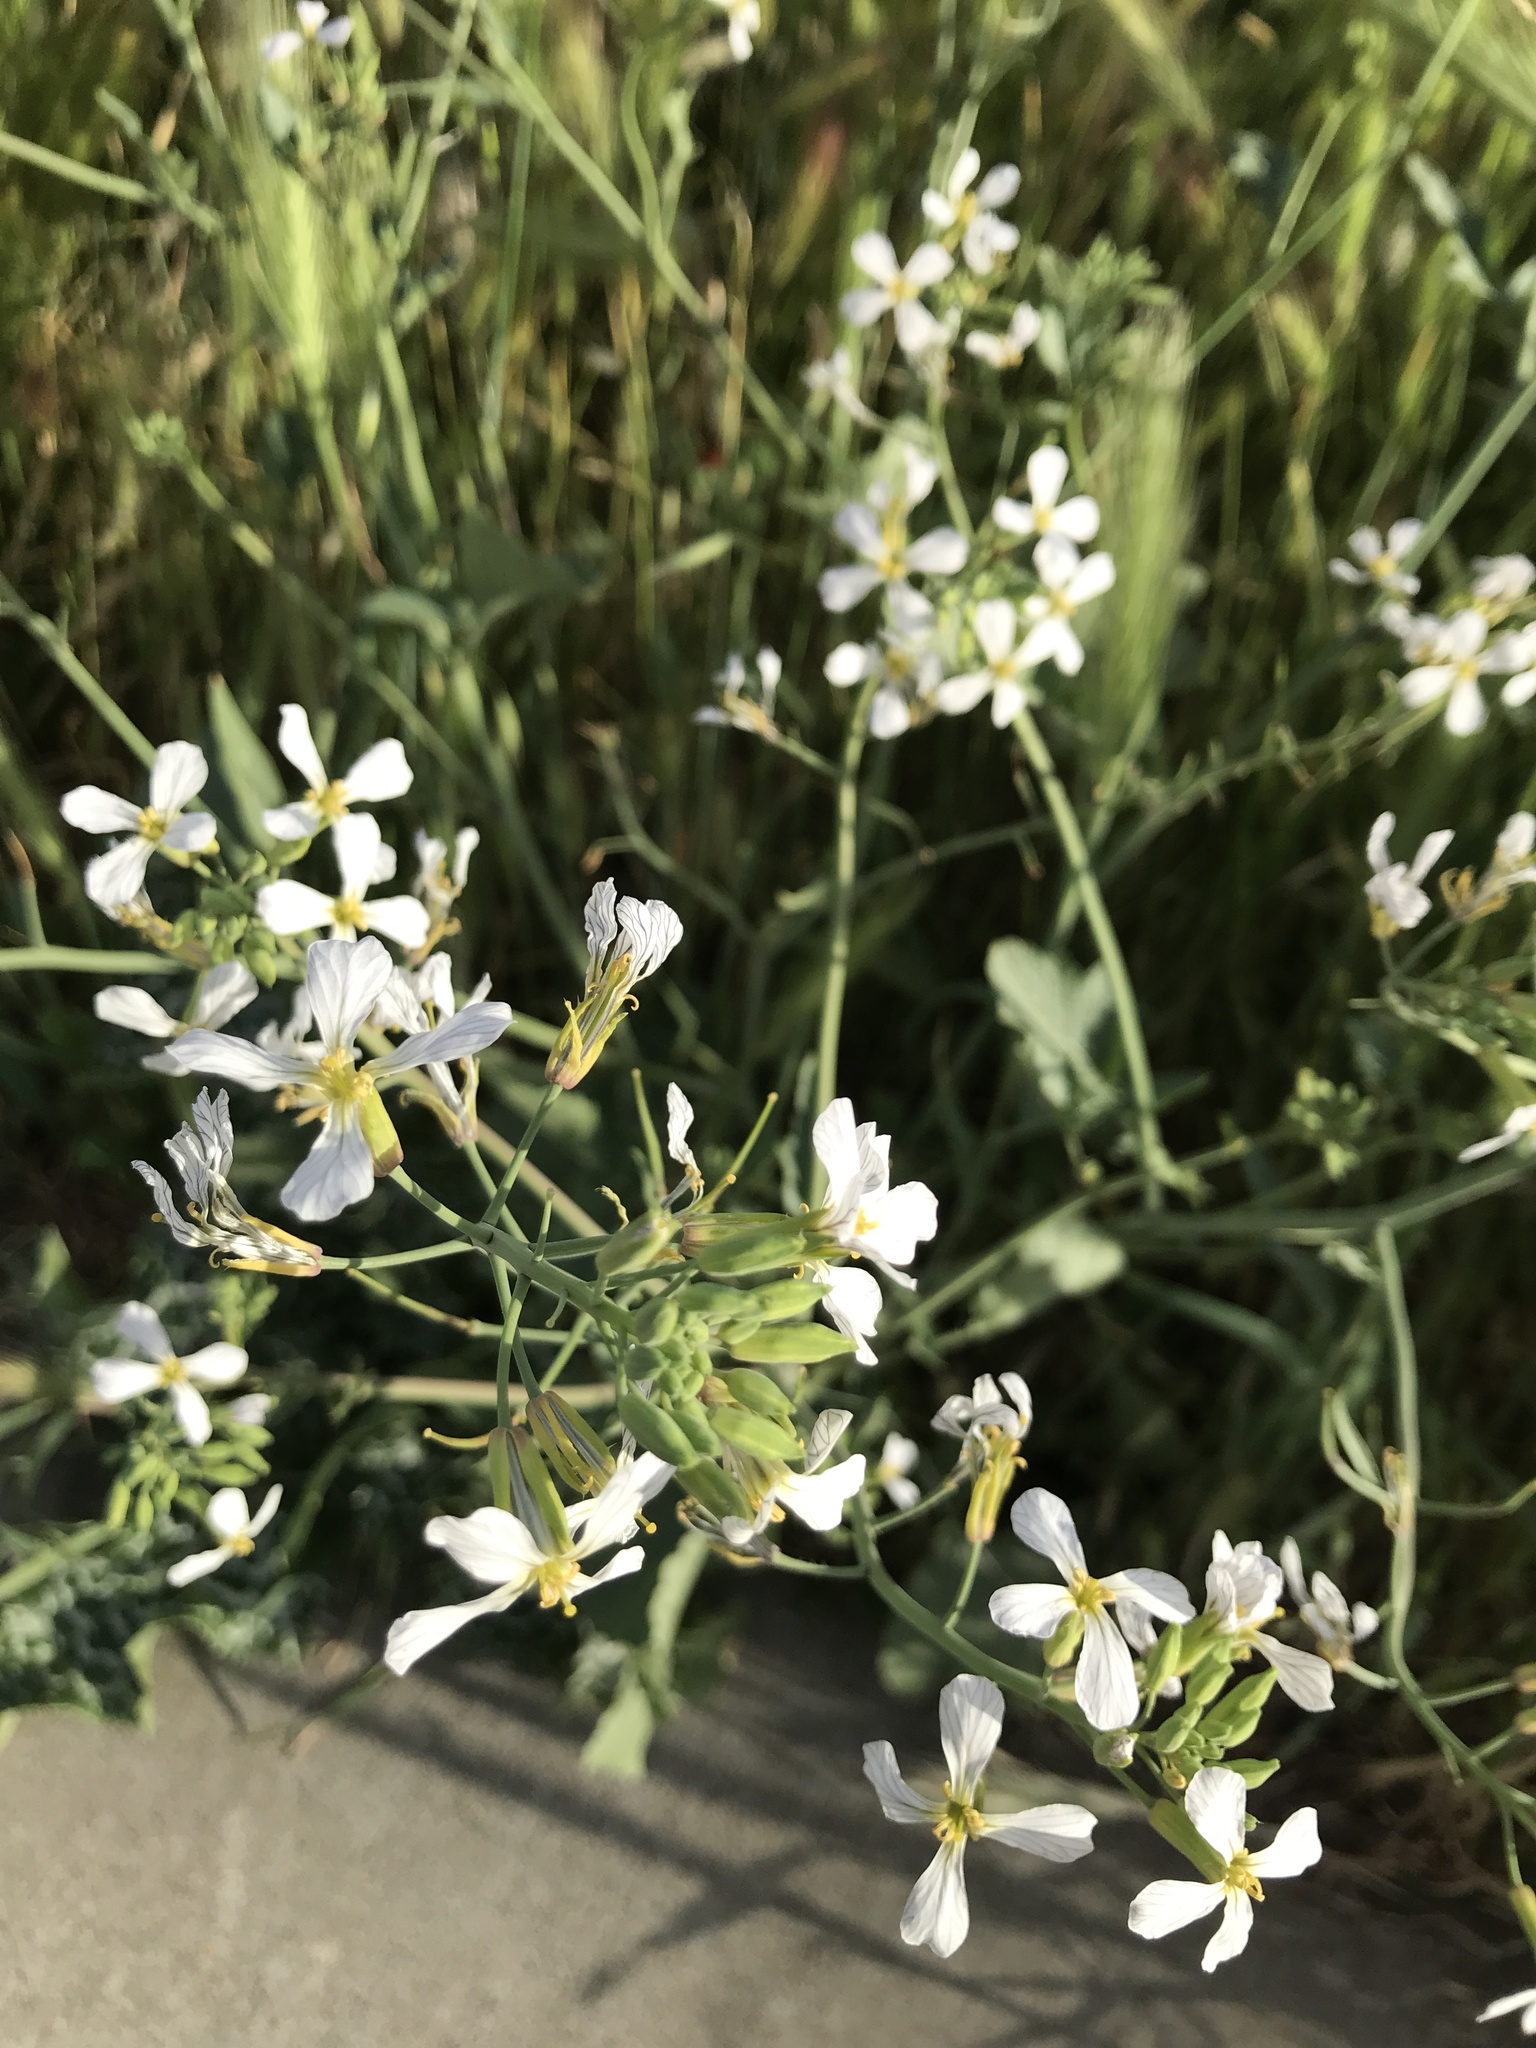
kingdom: Plantae
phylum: Tracheophyta
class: Magnoliopsida
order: Brassicales
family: Brassicaceae
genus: Raphanus
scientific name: Raphanus sativus
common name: Cultivated radish
